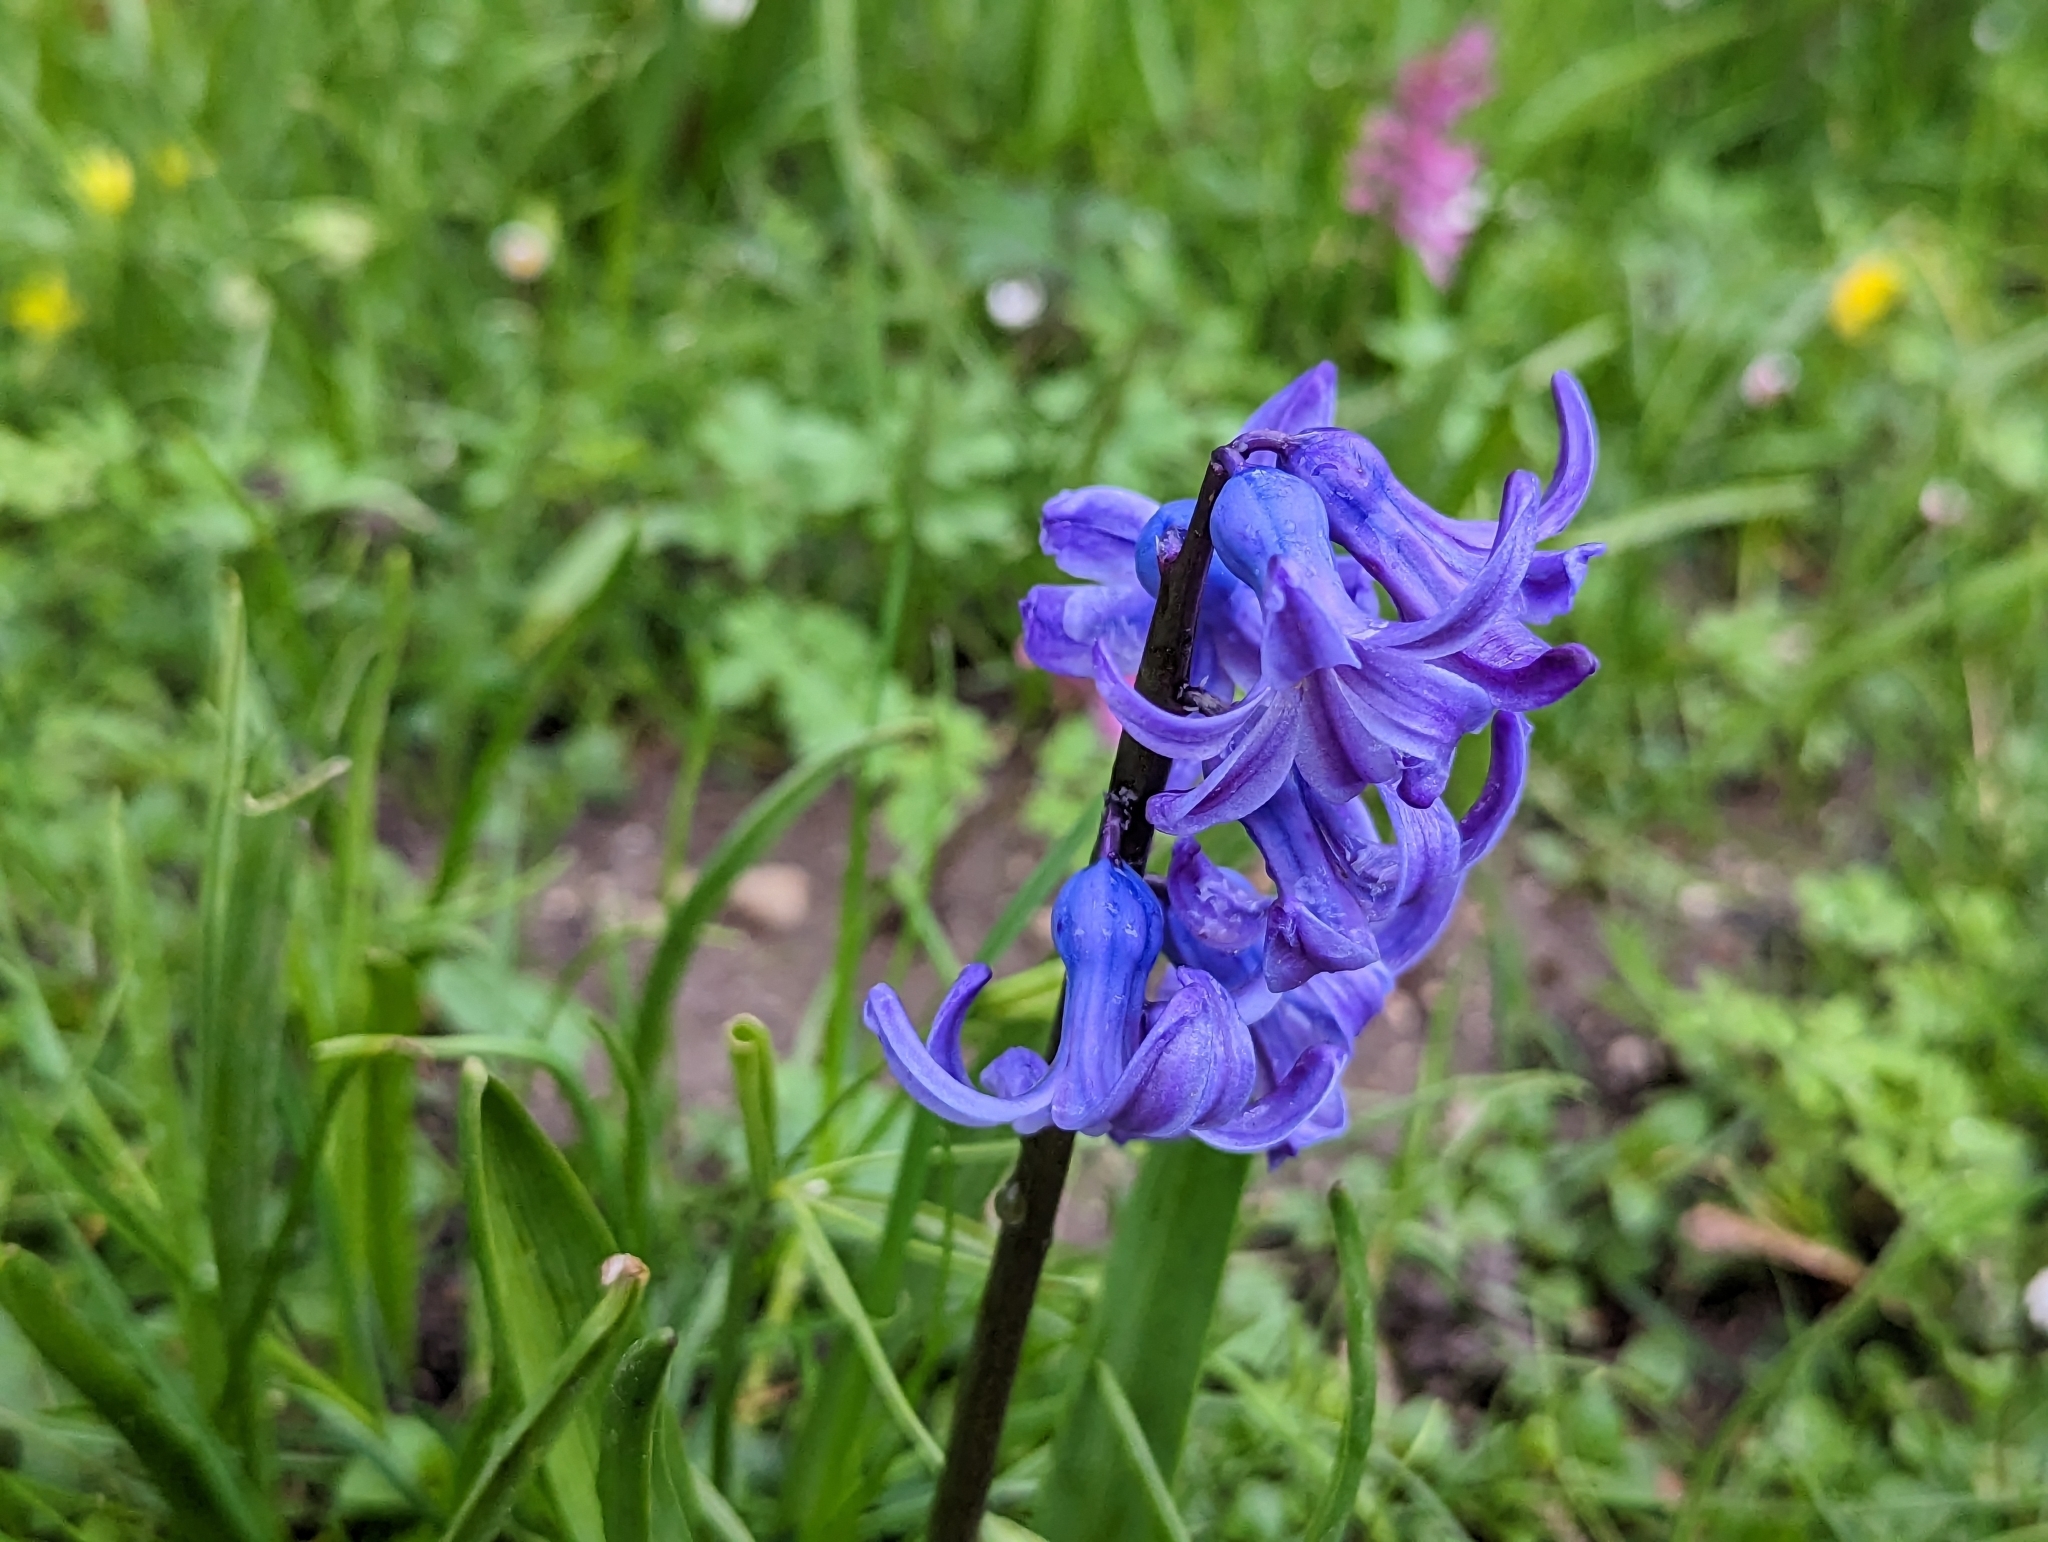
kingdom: Plantae
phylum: Tracheophyta
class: Liliopsida
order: Asparagales
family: Asparagaceae
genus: Hyacinthus
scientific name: Hyacinthus orientalis
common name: Hyacinth
